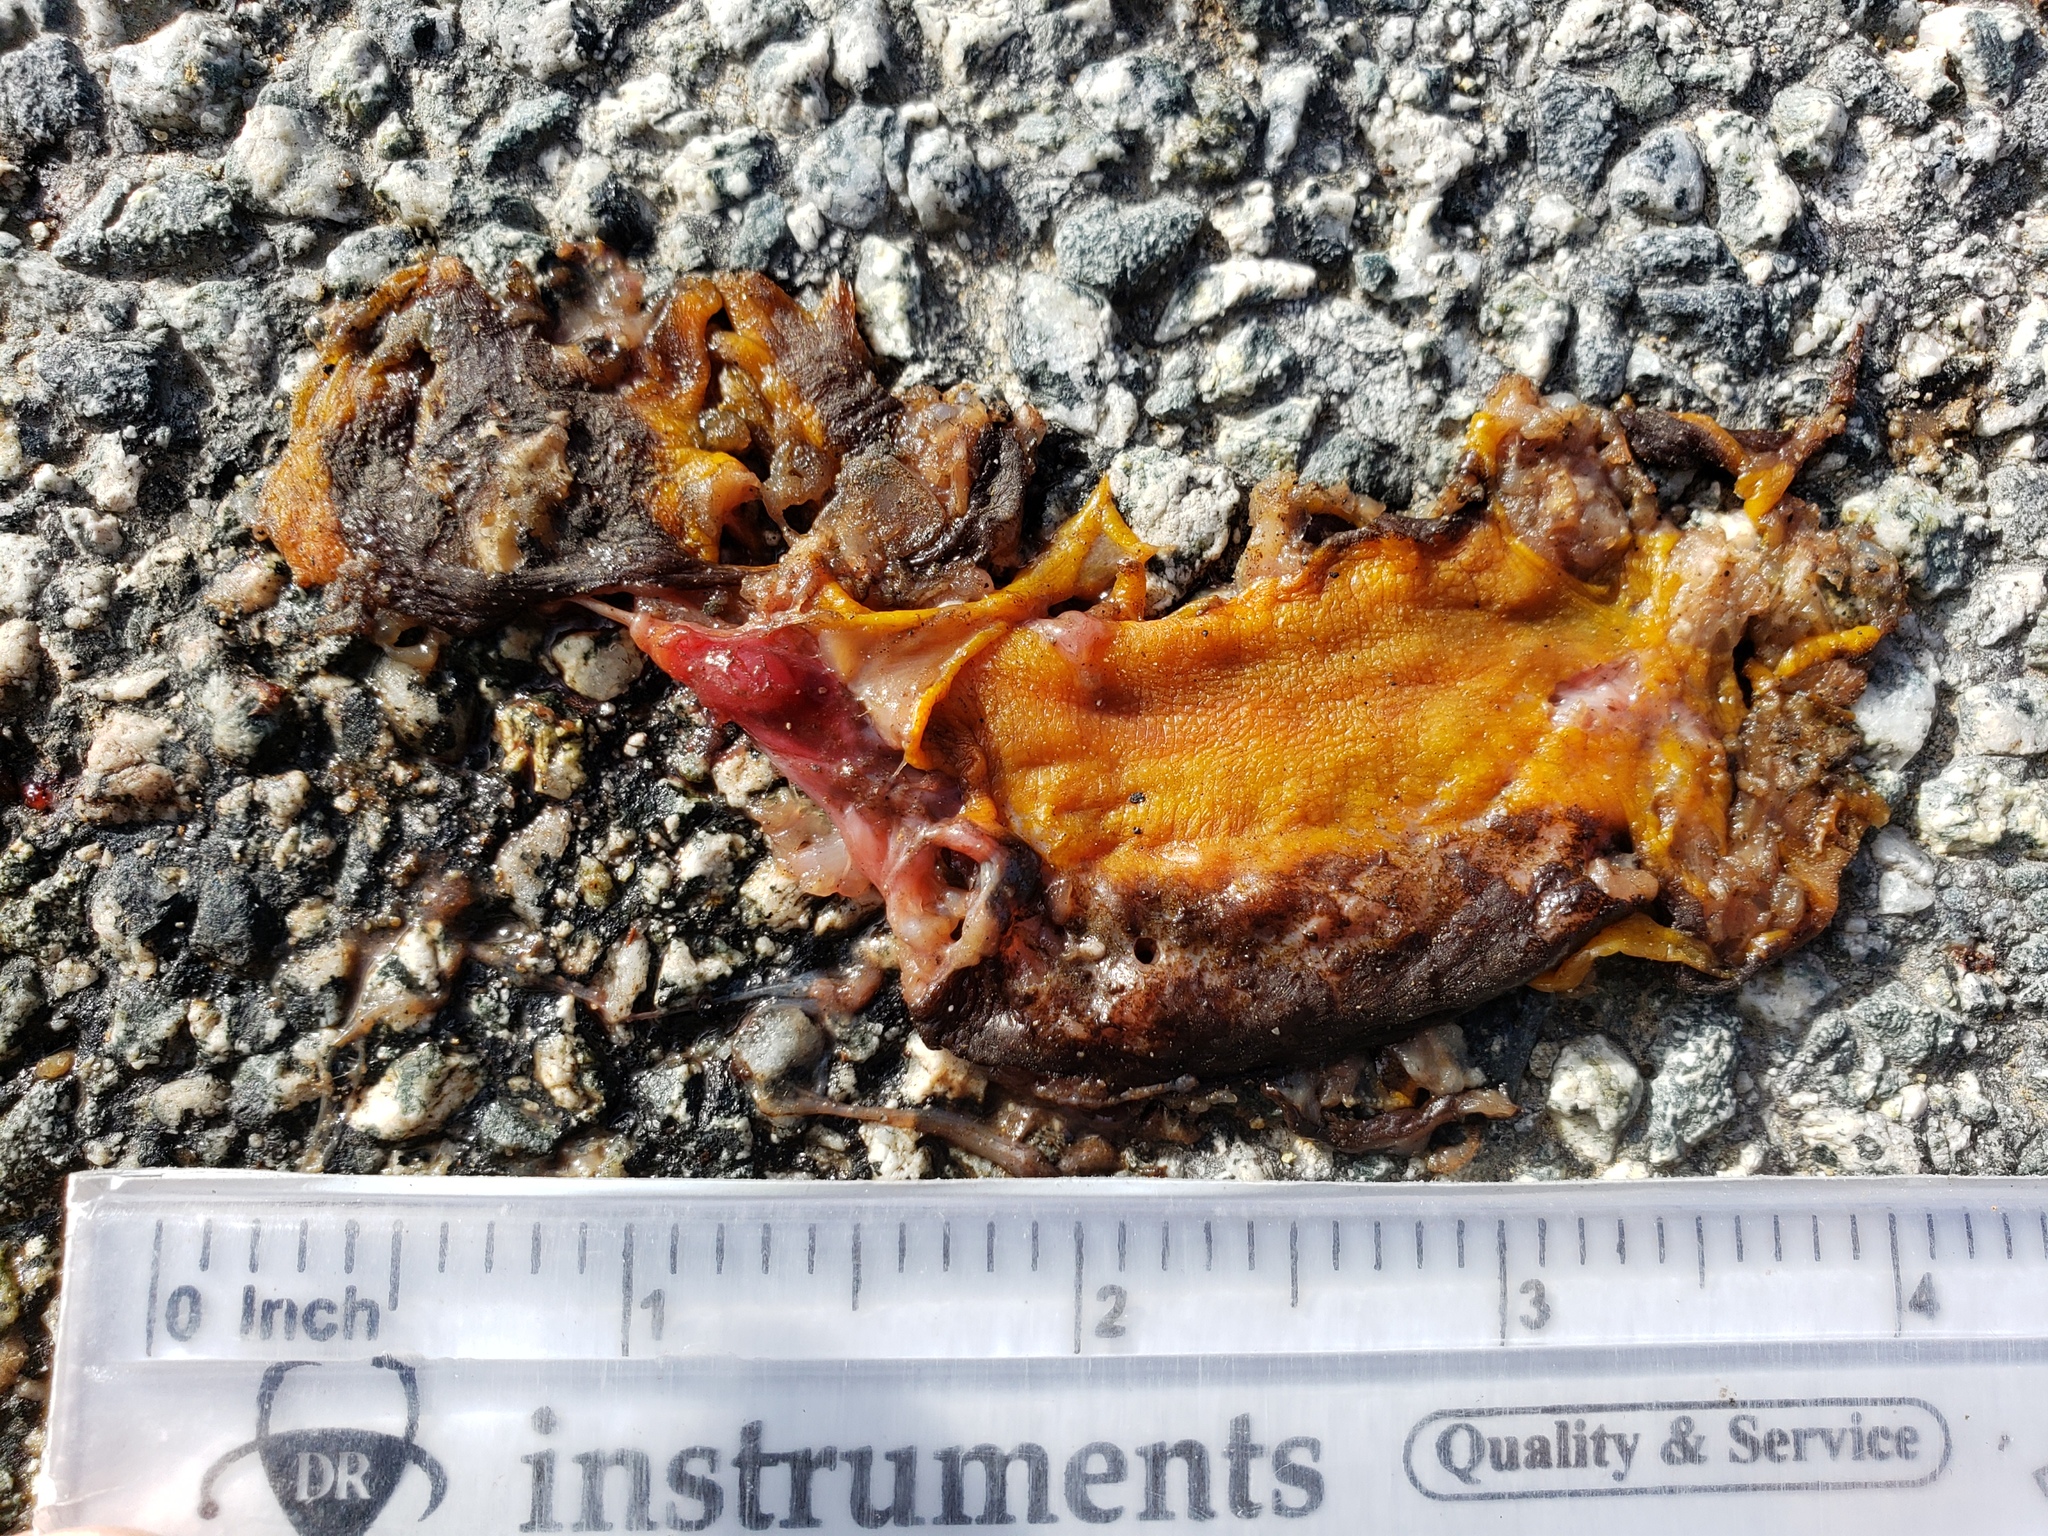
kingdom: Animalia
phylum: Chordata
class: Amphibia
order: Caudata
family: Salamandridae
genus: Taricha
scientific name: Taricha
